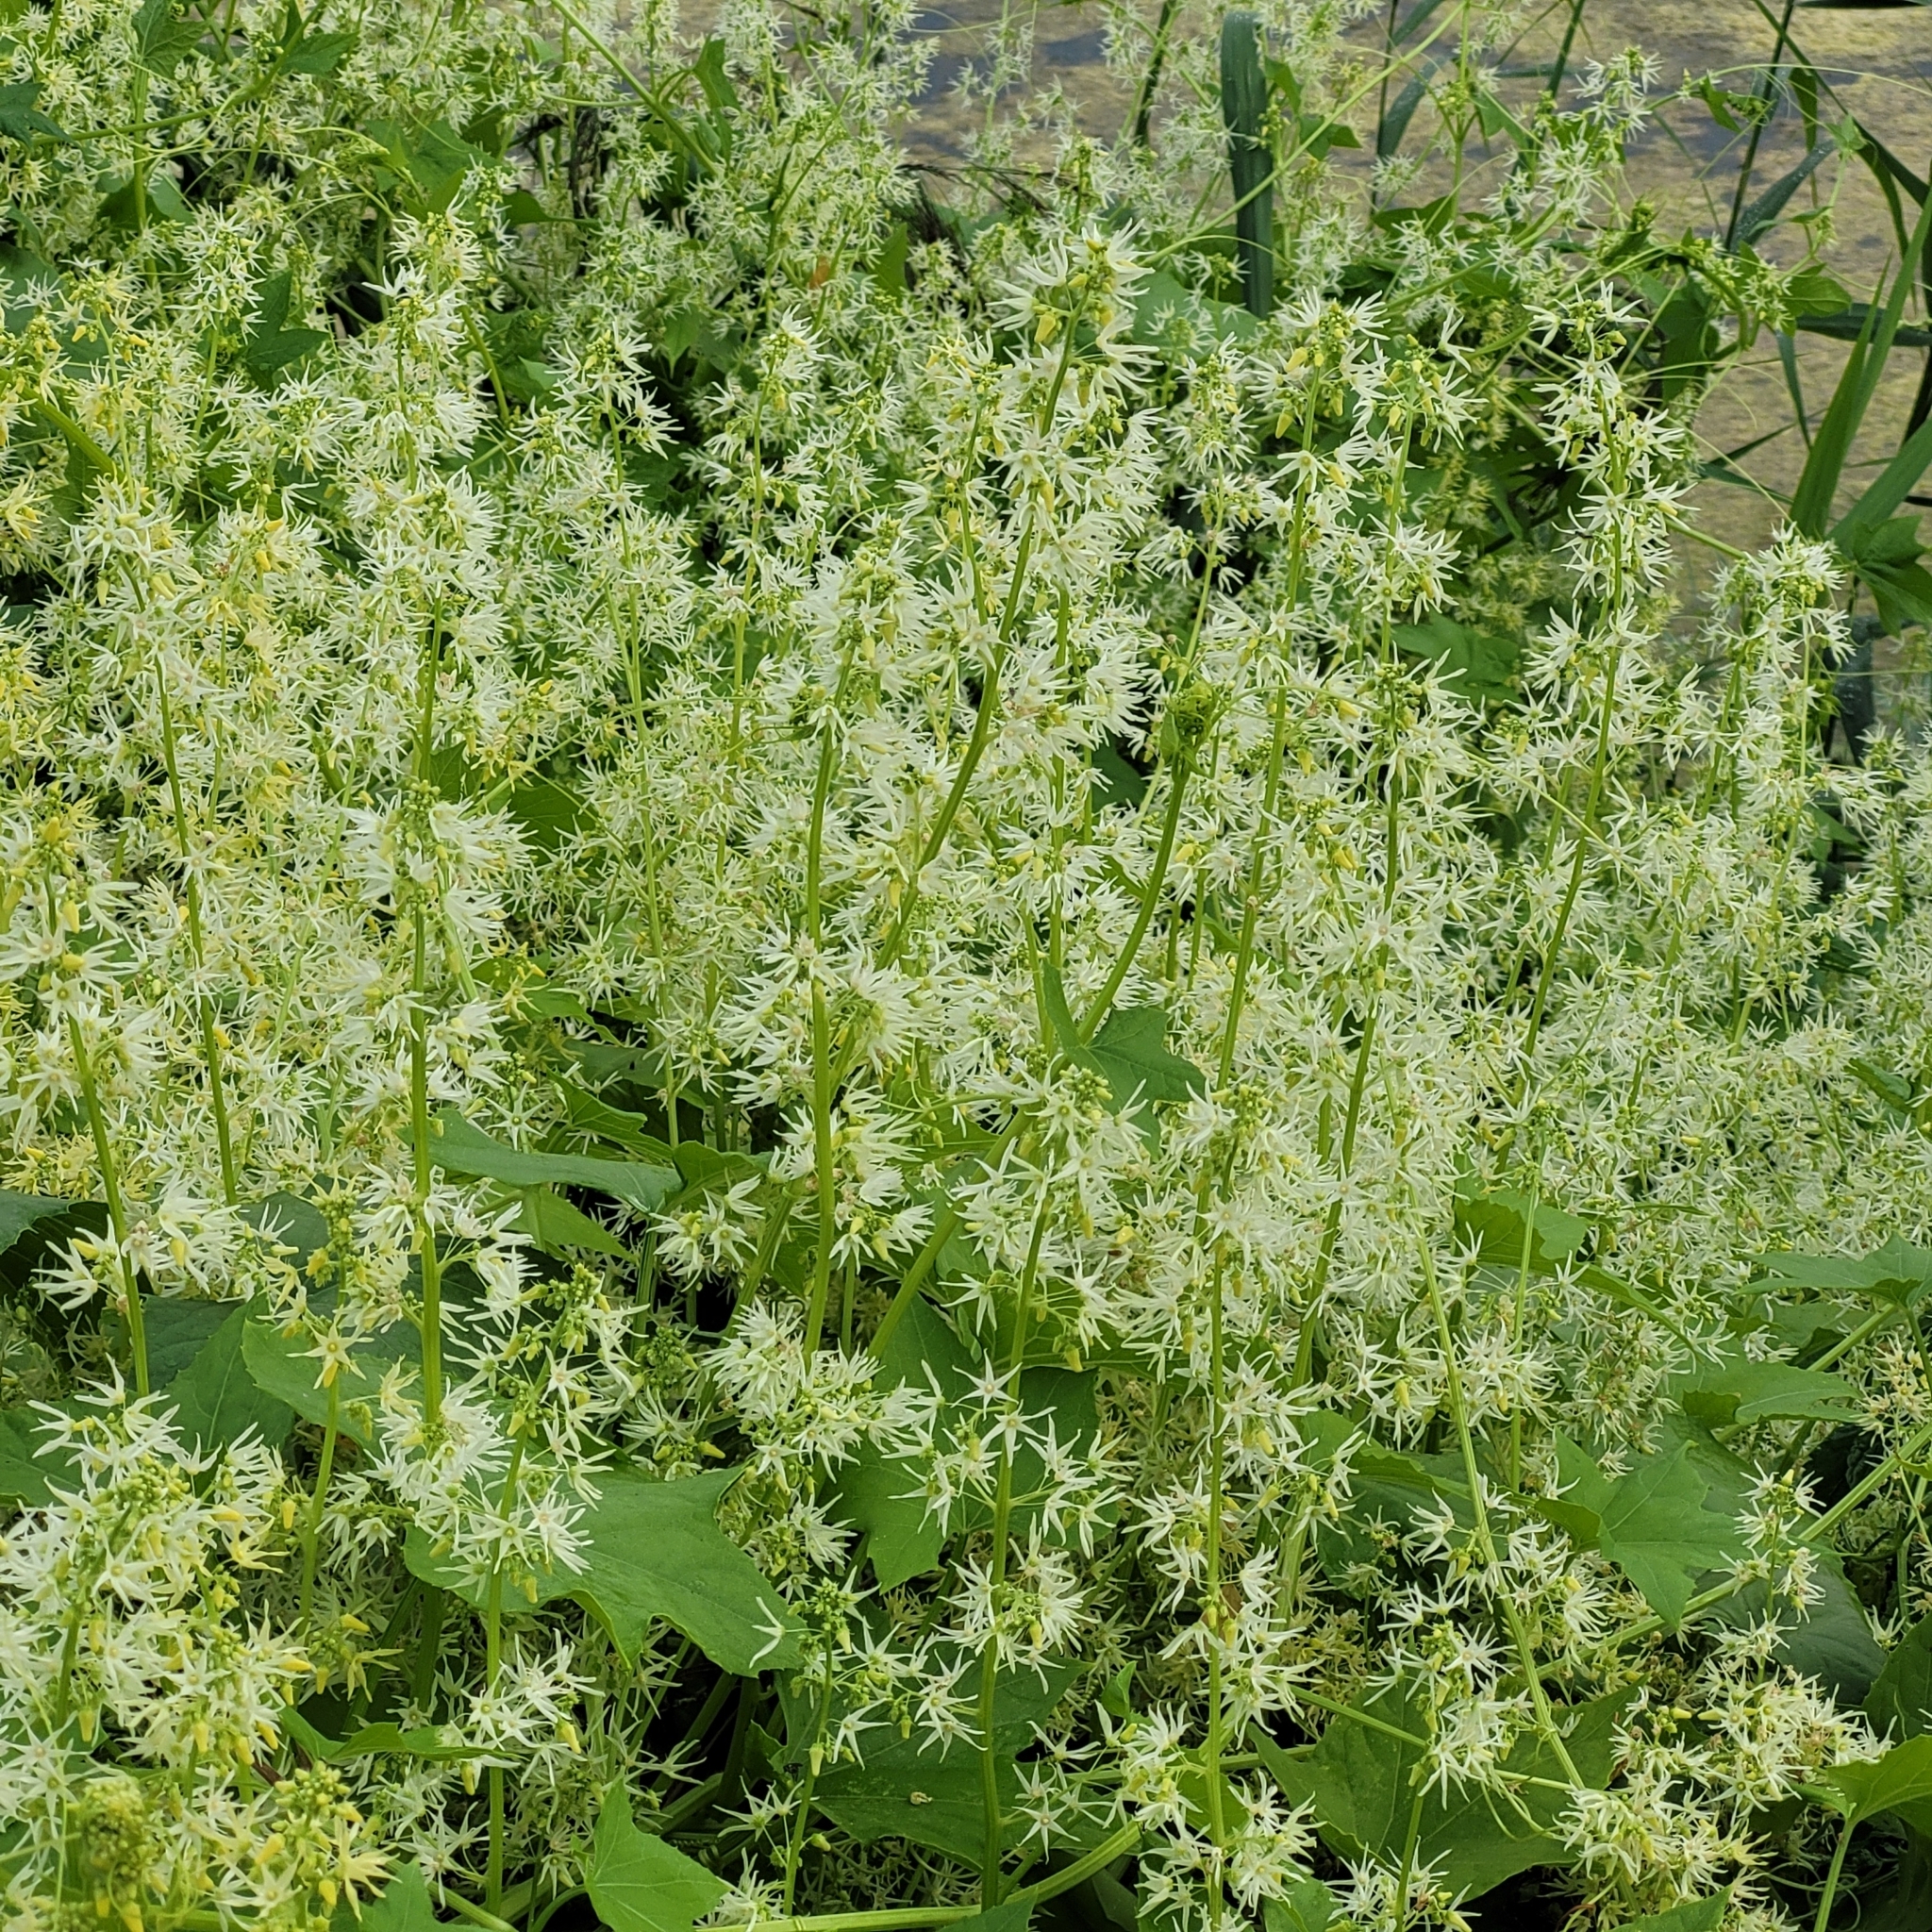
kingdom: Plantae
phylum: Tracheophyta
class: Magnoliopsida
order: Cucurbitales
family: Cucurbitaceae
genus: Echinocystis
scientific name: Echinocystis lobata
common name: Wild cucumber
